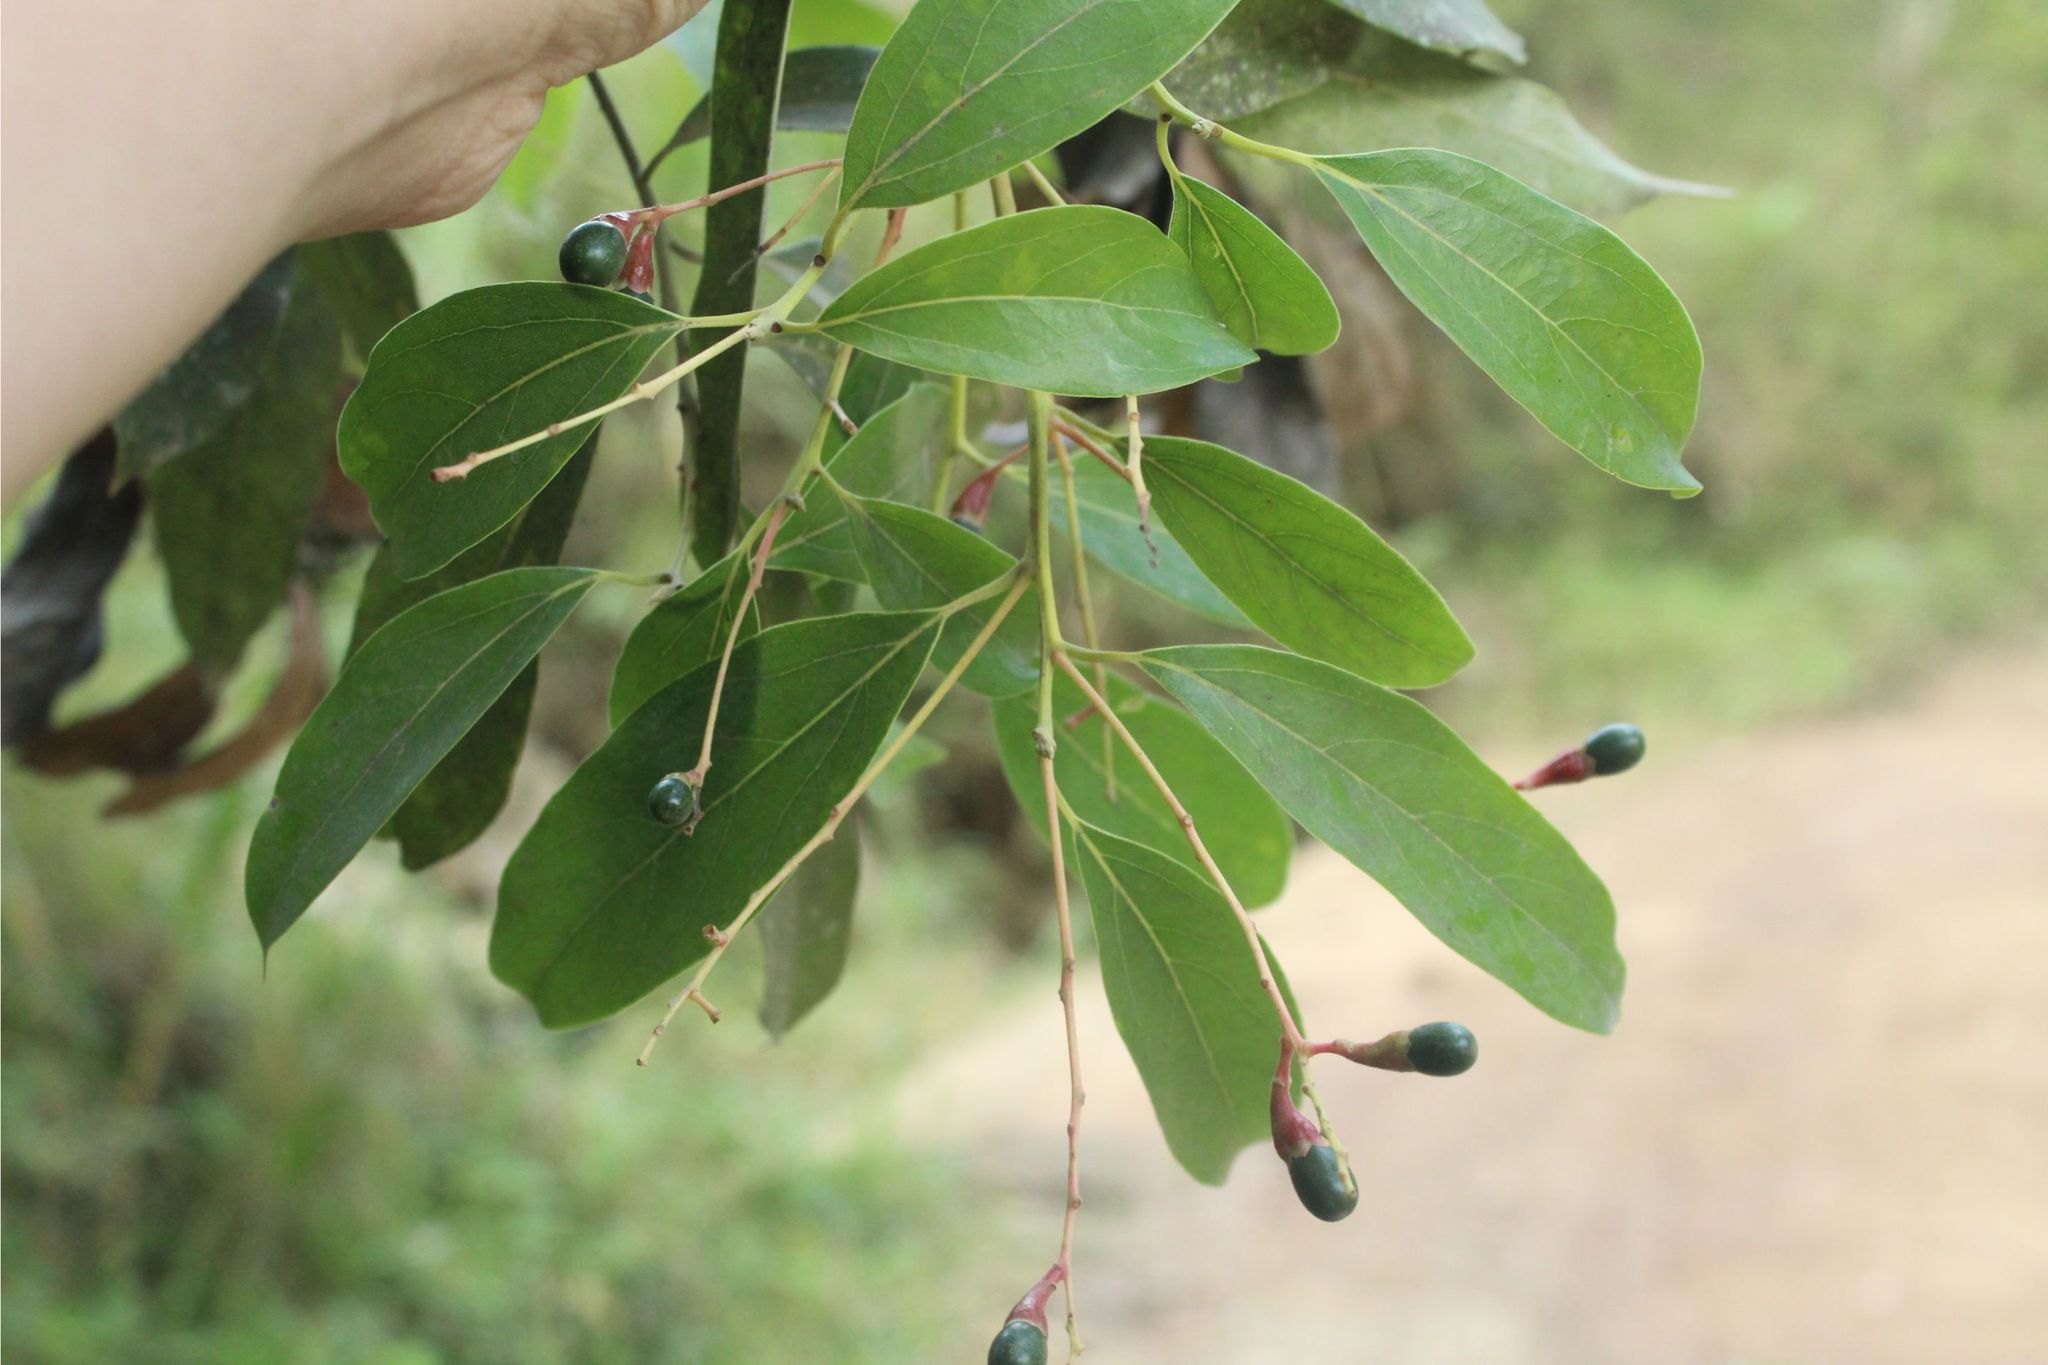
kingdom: Plantae
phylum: Tracheophyta
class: Magnoliopsida
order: Laurales
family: Lauraceae
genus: Aiouea
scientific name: Aiouea montana
